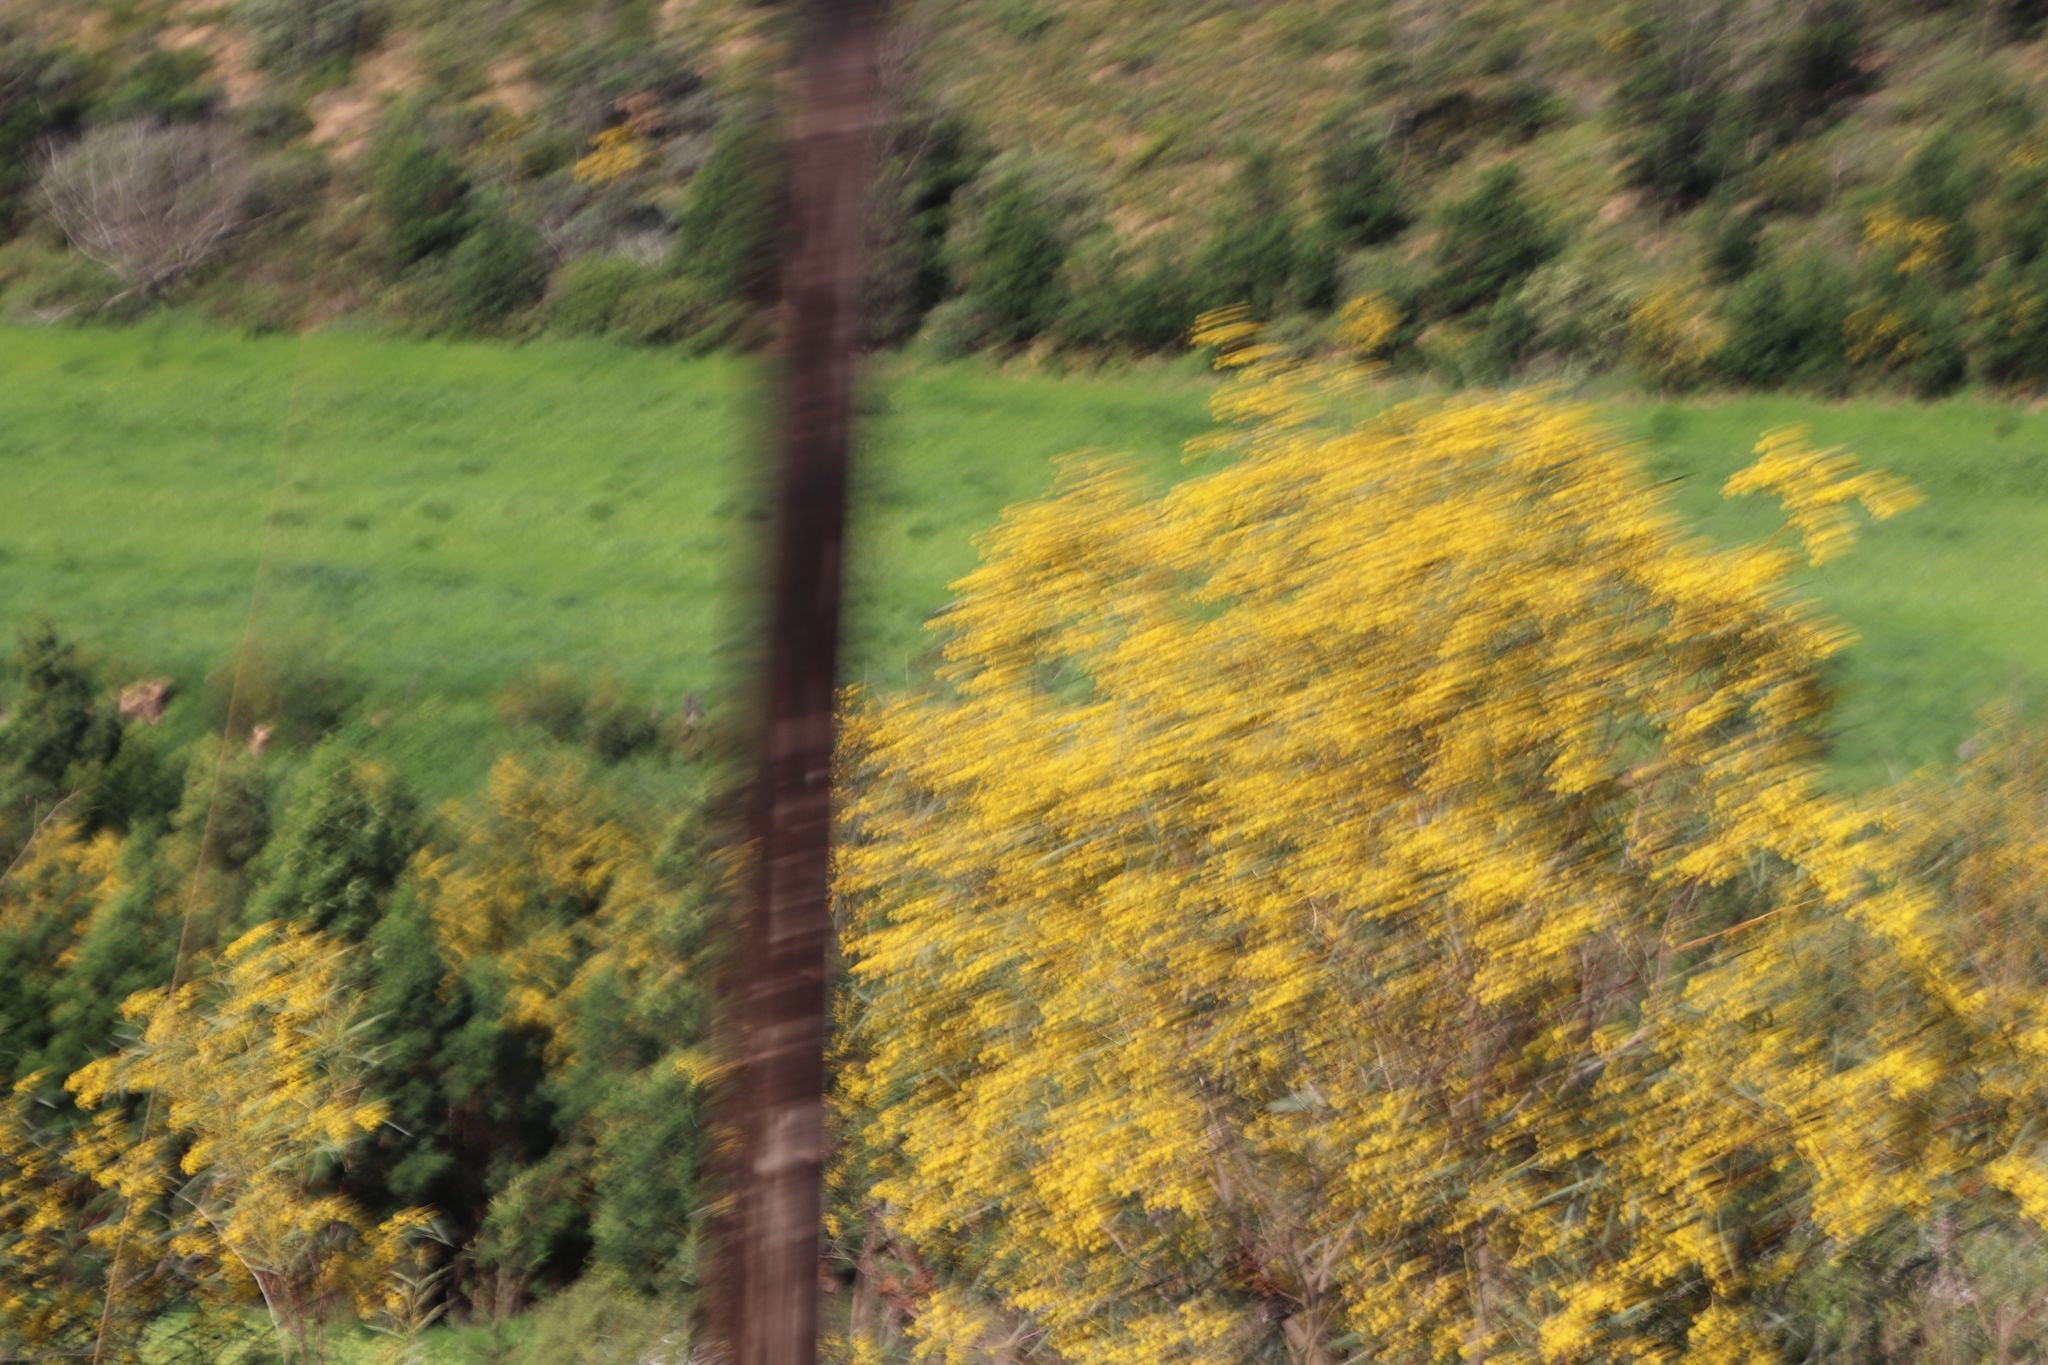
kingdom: Plantae
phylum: Tracheophyta
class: Magnoliopsida
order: Fabales
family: Fabaceae
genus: Acacia
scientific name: Acacia saligna
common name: Orange wattle
